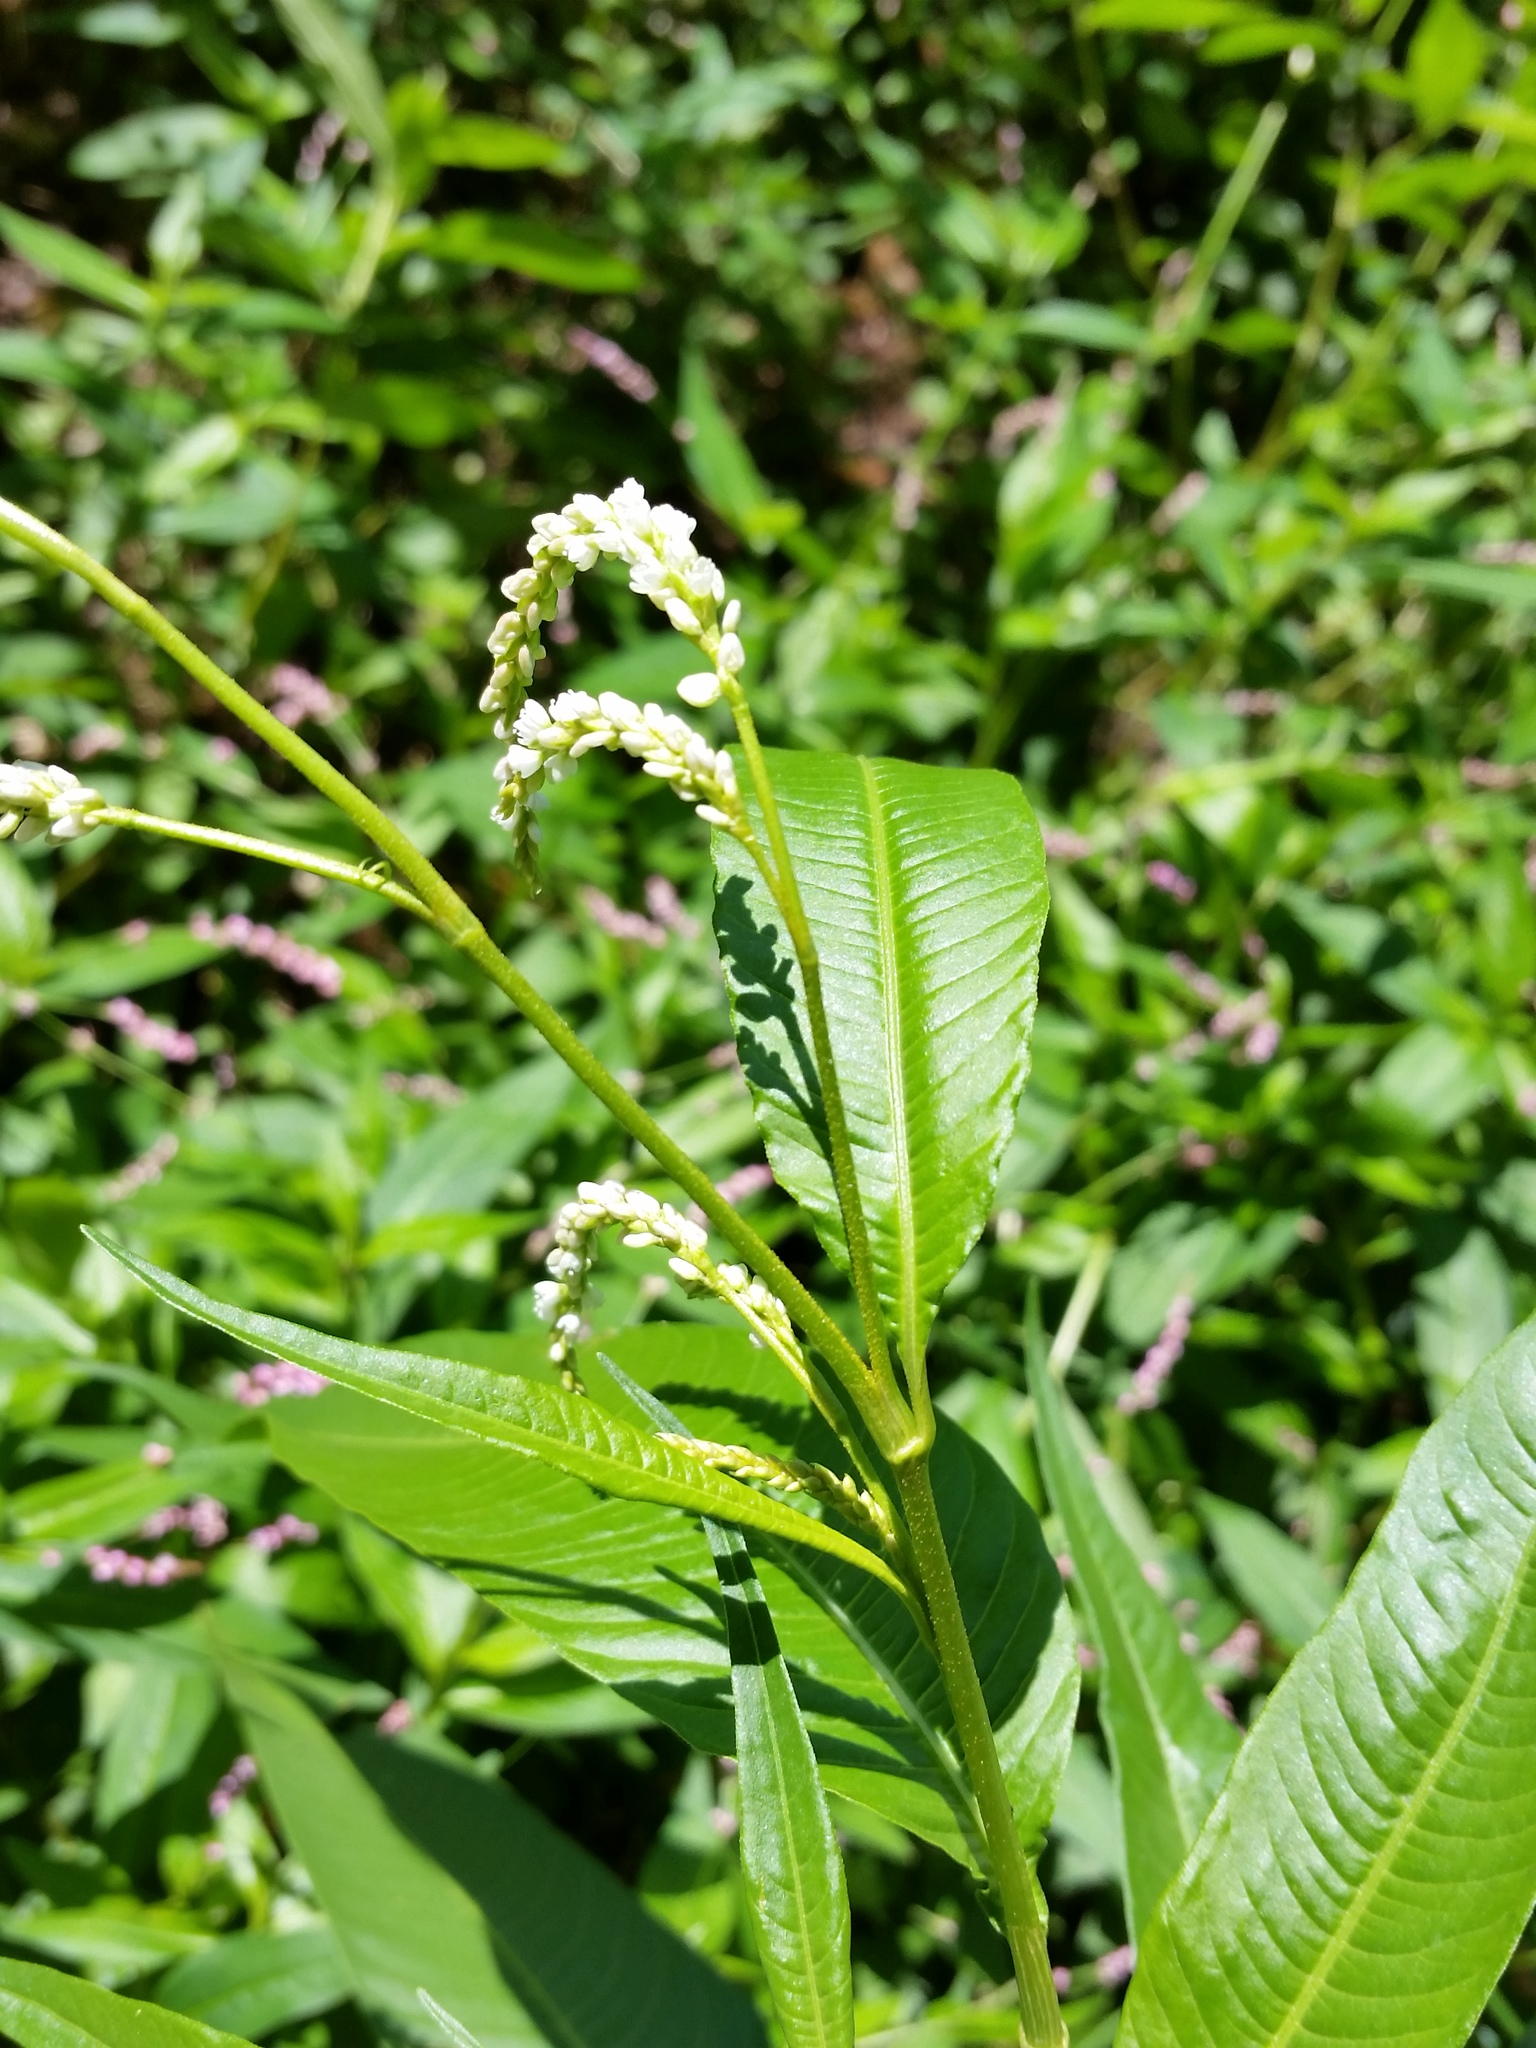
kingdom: Plantae
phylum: Tracheophyta
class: Magnoliopsida
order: Caryophyllales
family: Polygonaceae
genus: Persicaria
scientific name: Persicaria lapathifolia
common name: Curlytop knotweed
